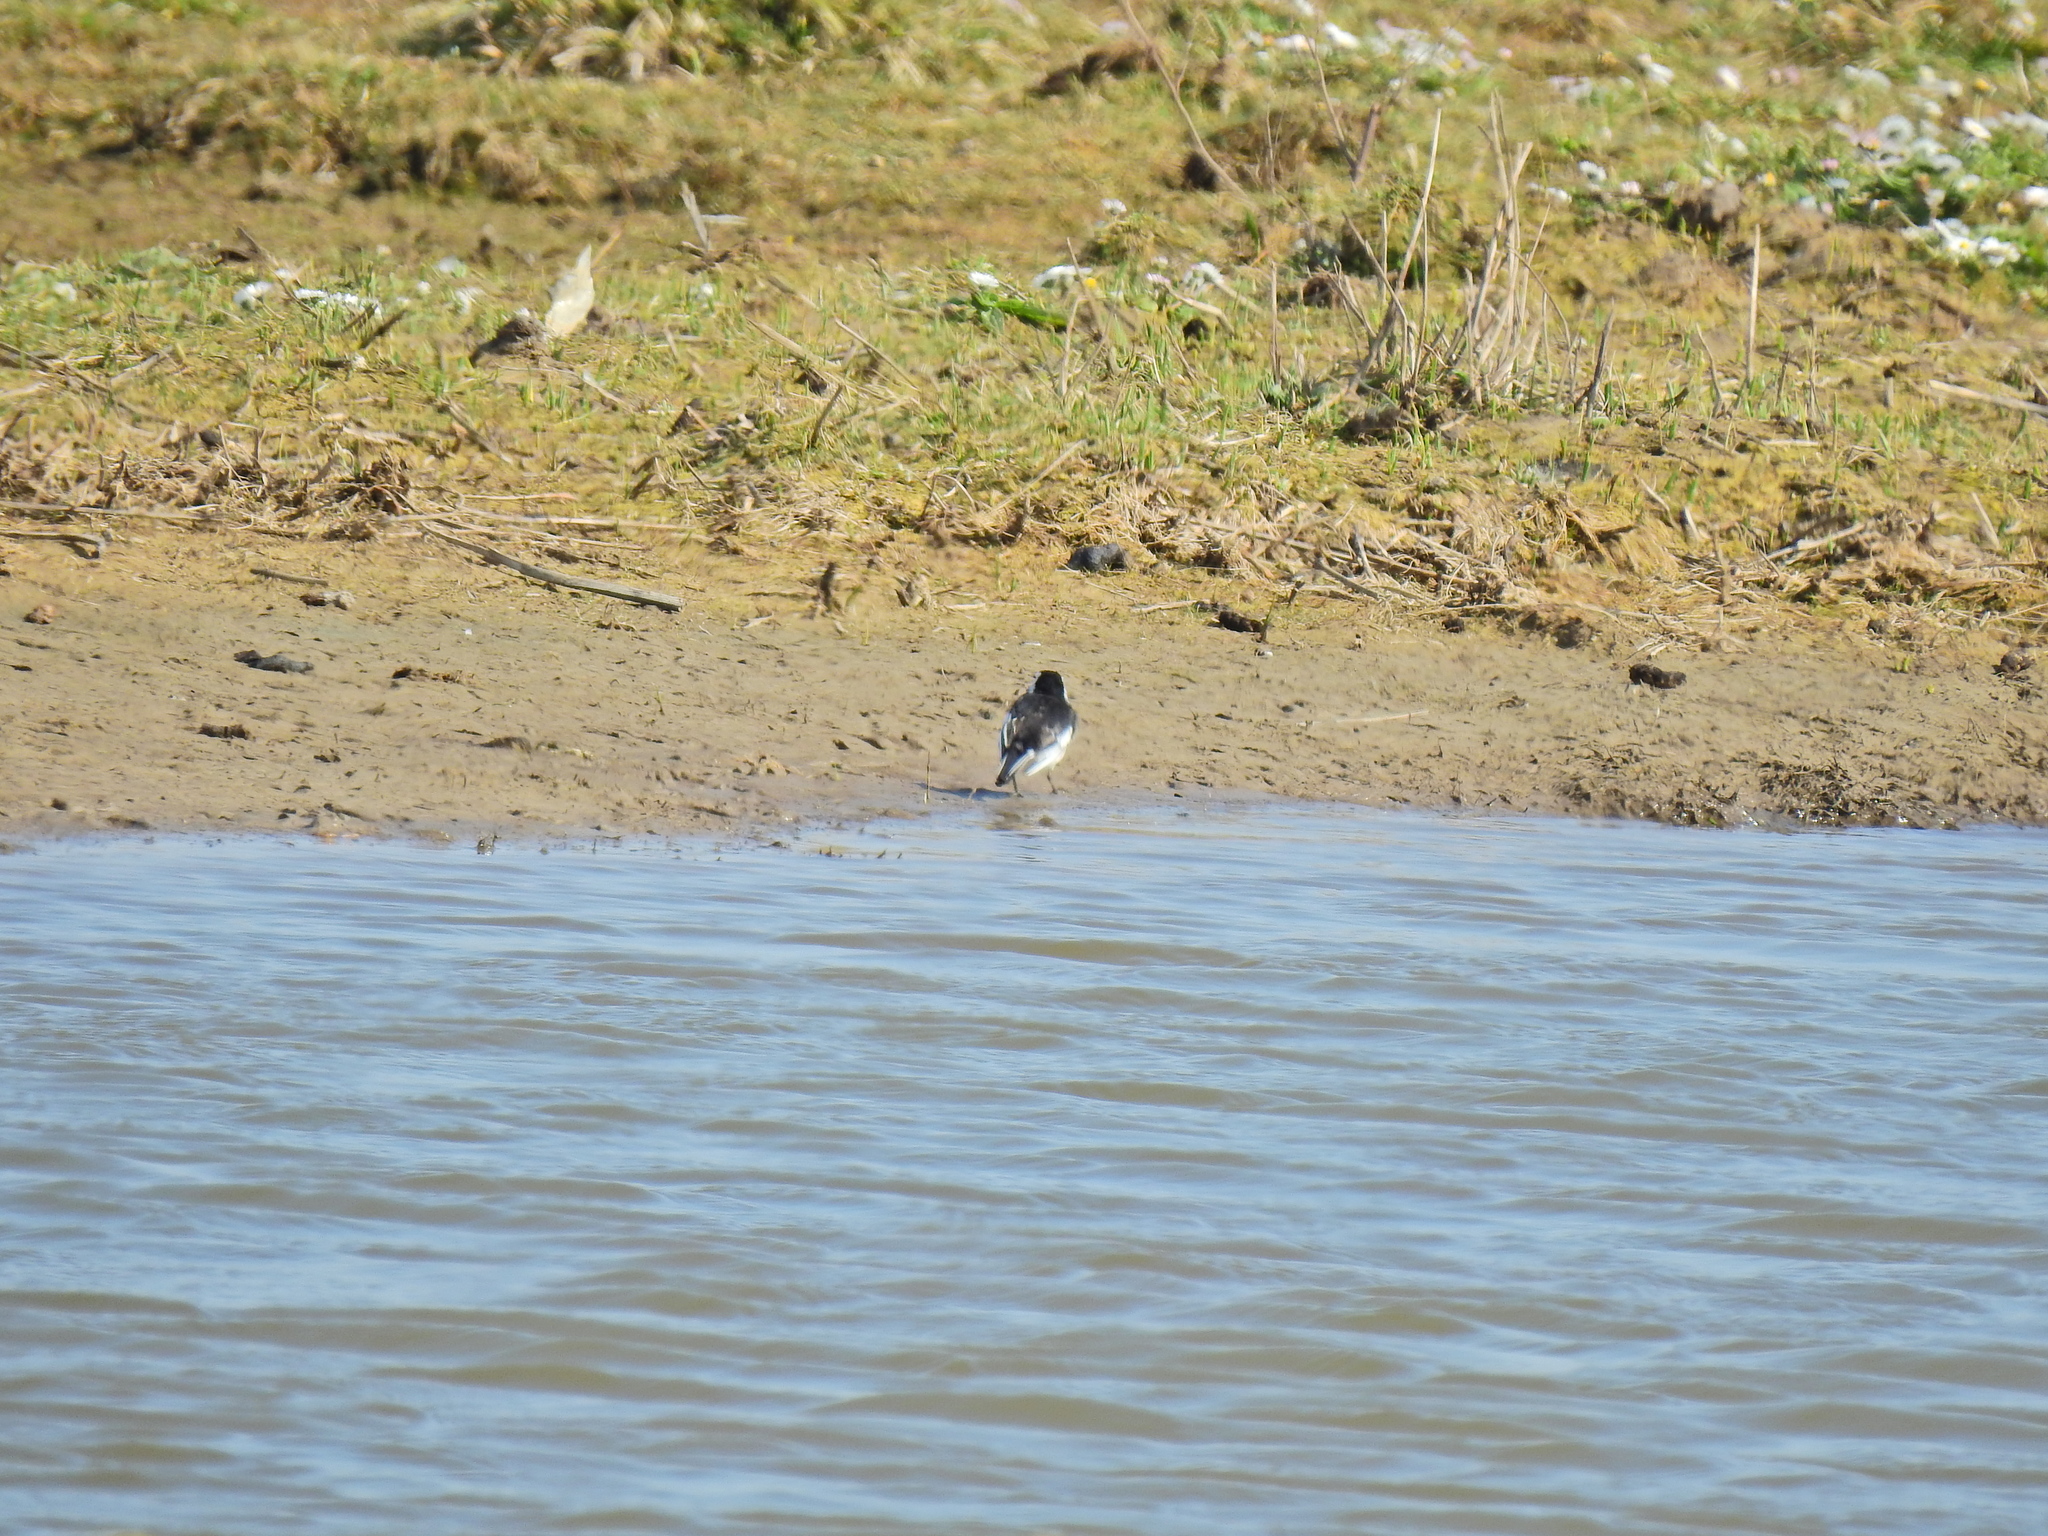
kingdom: Animalia
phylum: Chordata
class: Aves
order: Passeriformes
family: Motacillidae
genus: Motacilla
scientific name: Motacilla alba
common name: White wagtail
